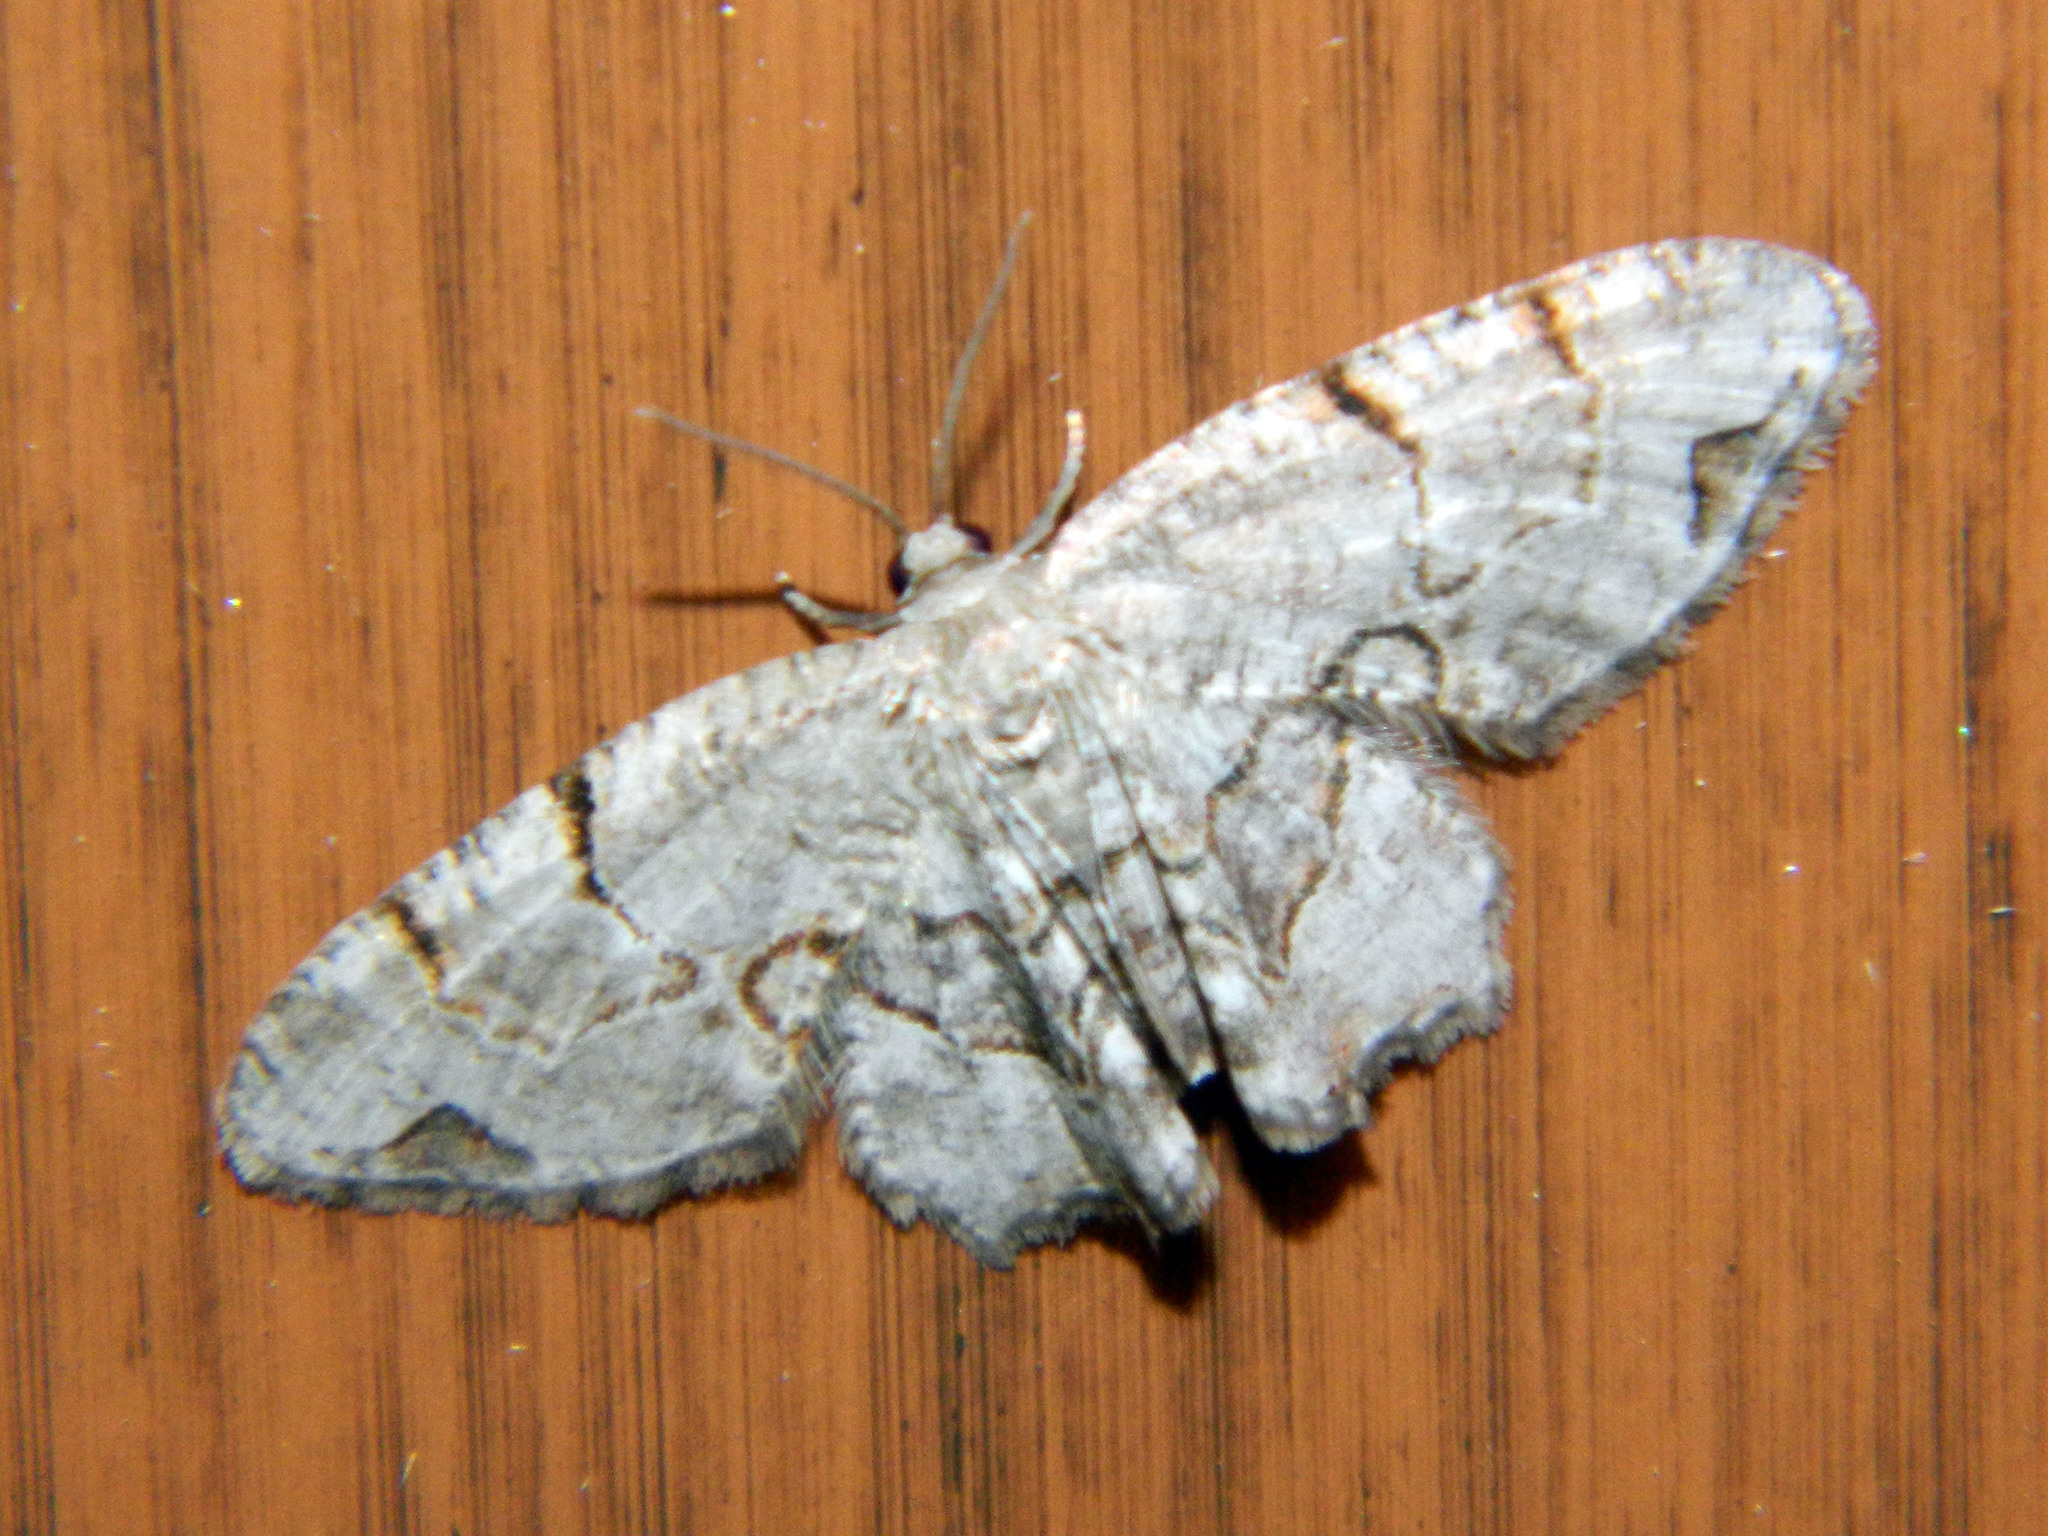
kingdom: Animalia
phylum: Arthropoda
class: Insecta
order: Lepidoptera
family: Uraniidae
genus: Epiplema
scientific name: Epiplema Callizzia amorata
